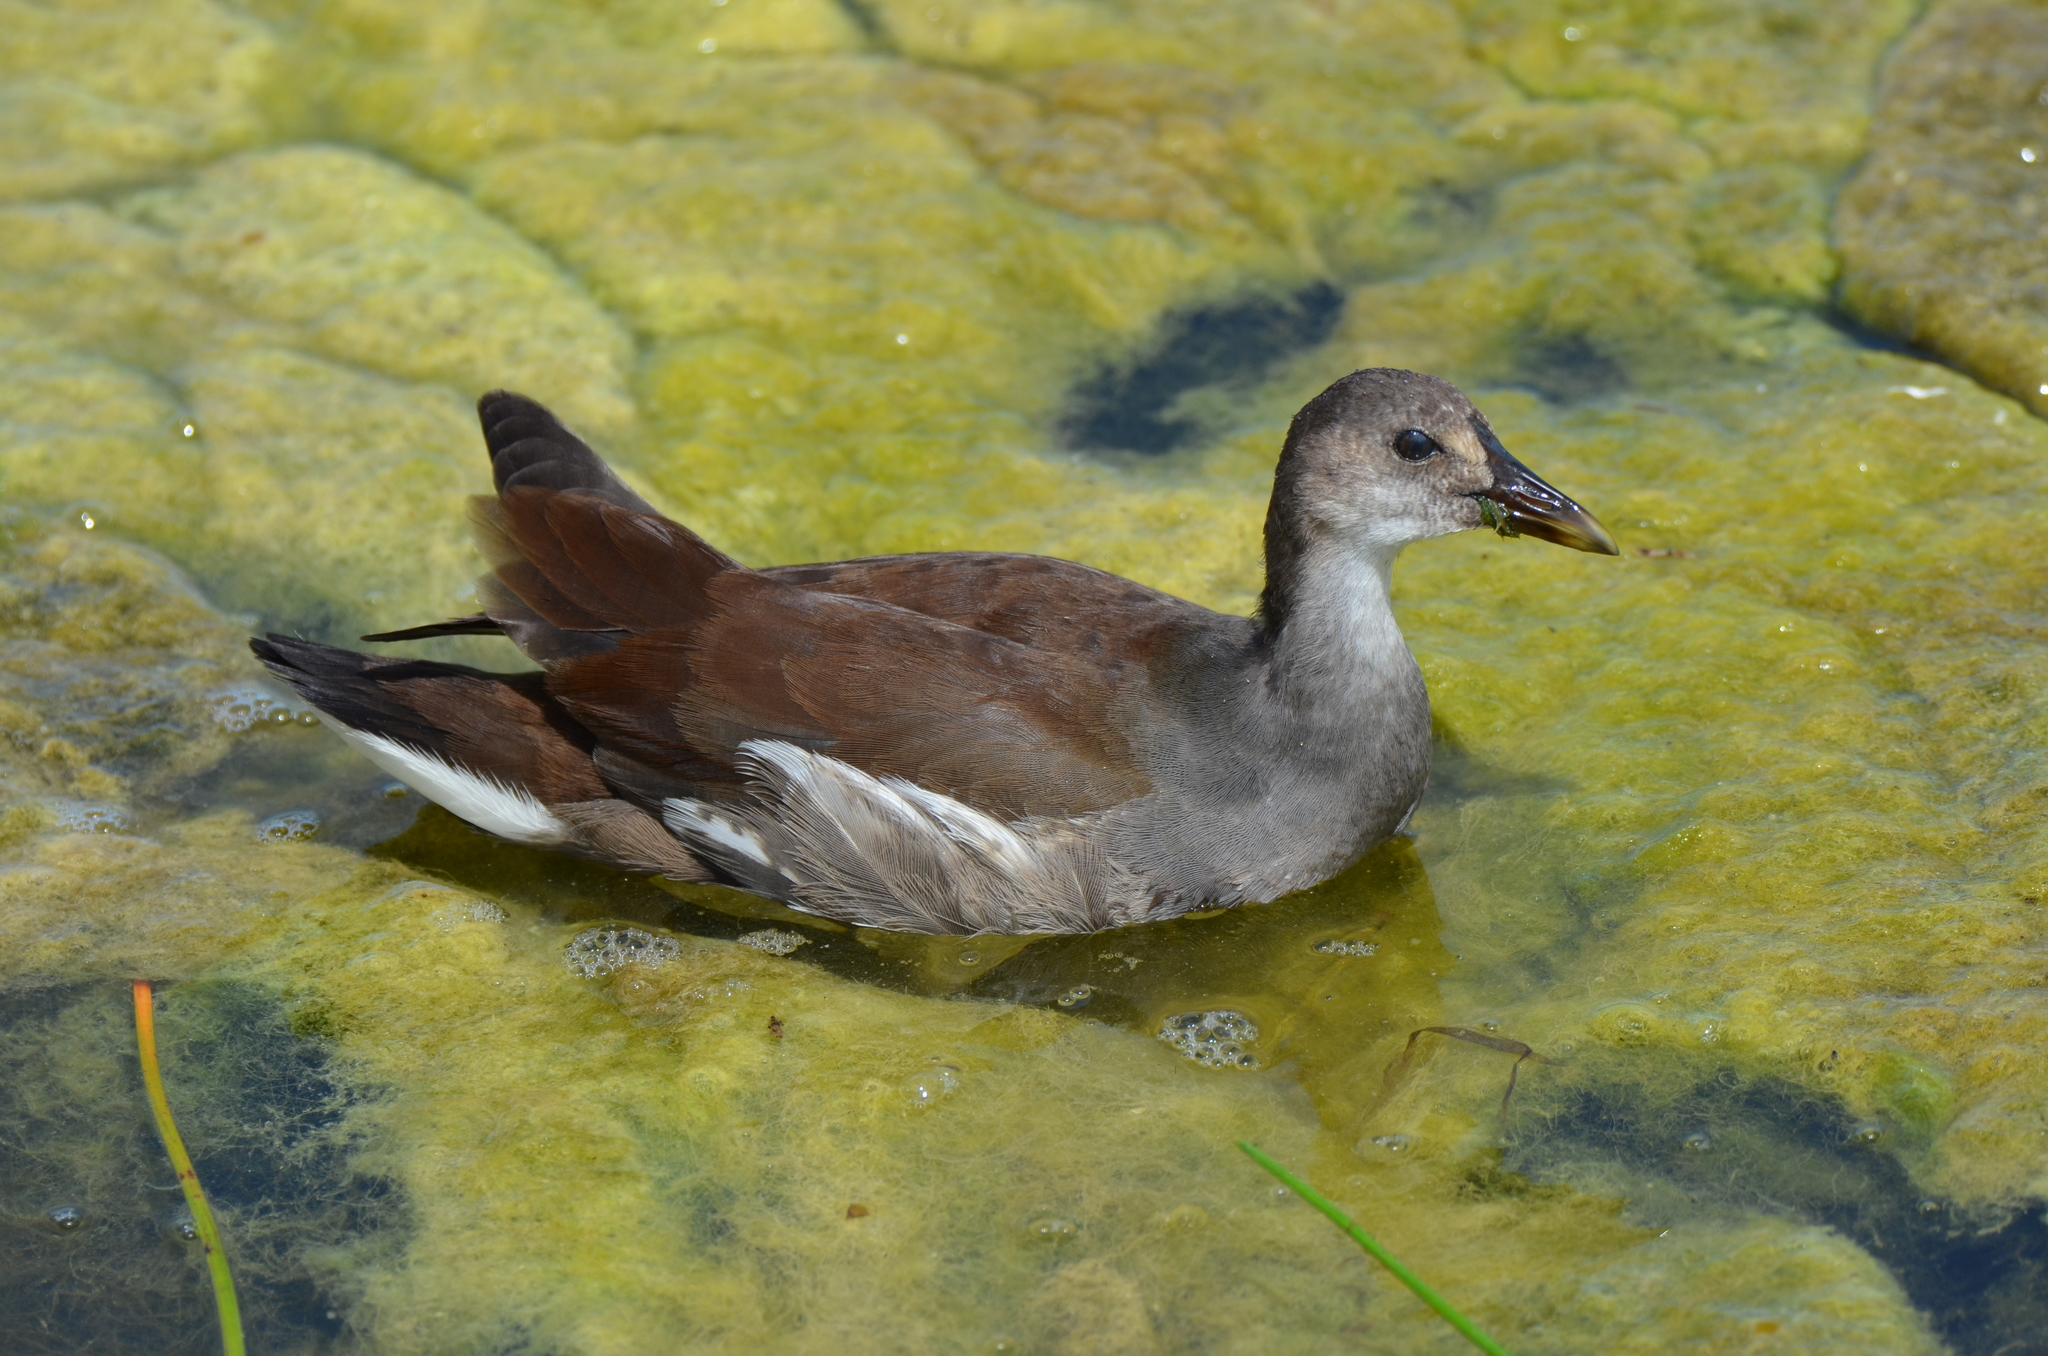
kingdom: Animalia
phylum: Chordata
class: Aves
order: Gruiformes
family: Rallidae
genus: Gallinula
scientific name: Gallinula chloropus
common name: Common moorhen
